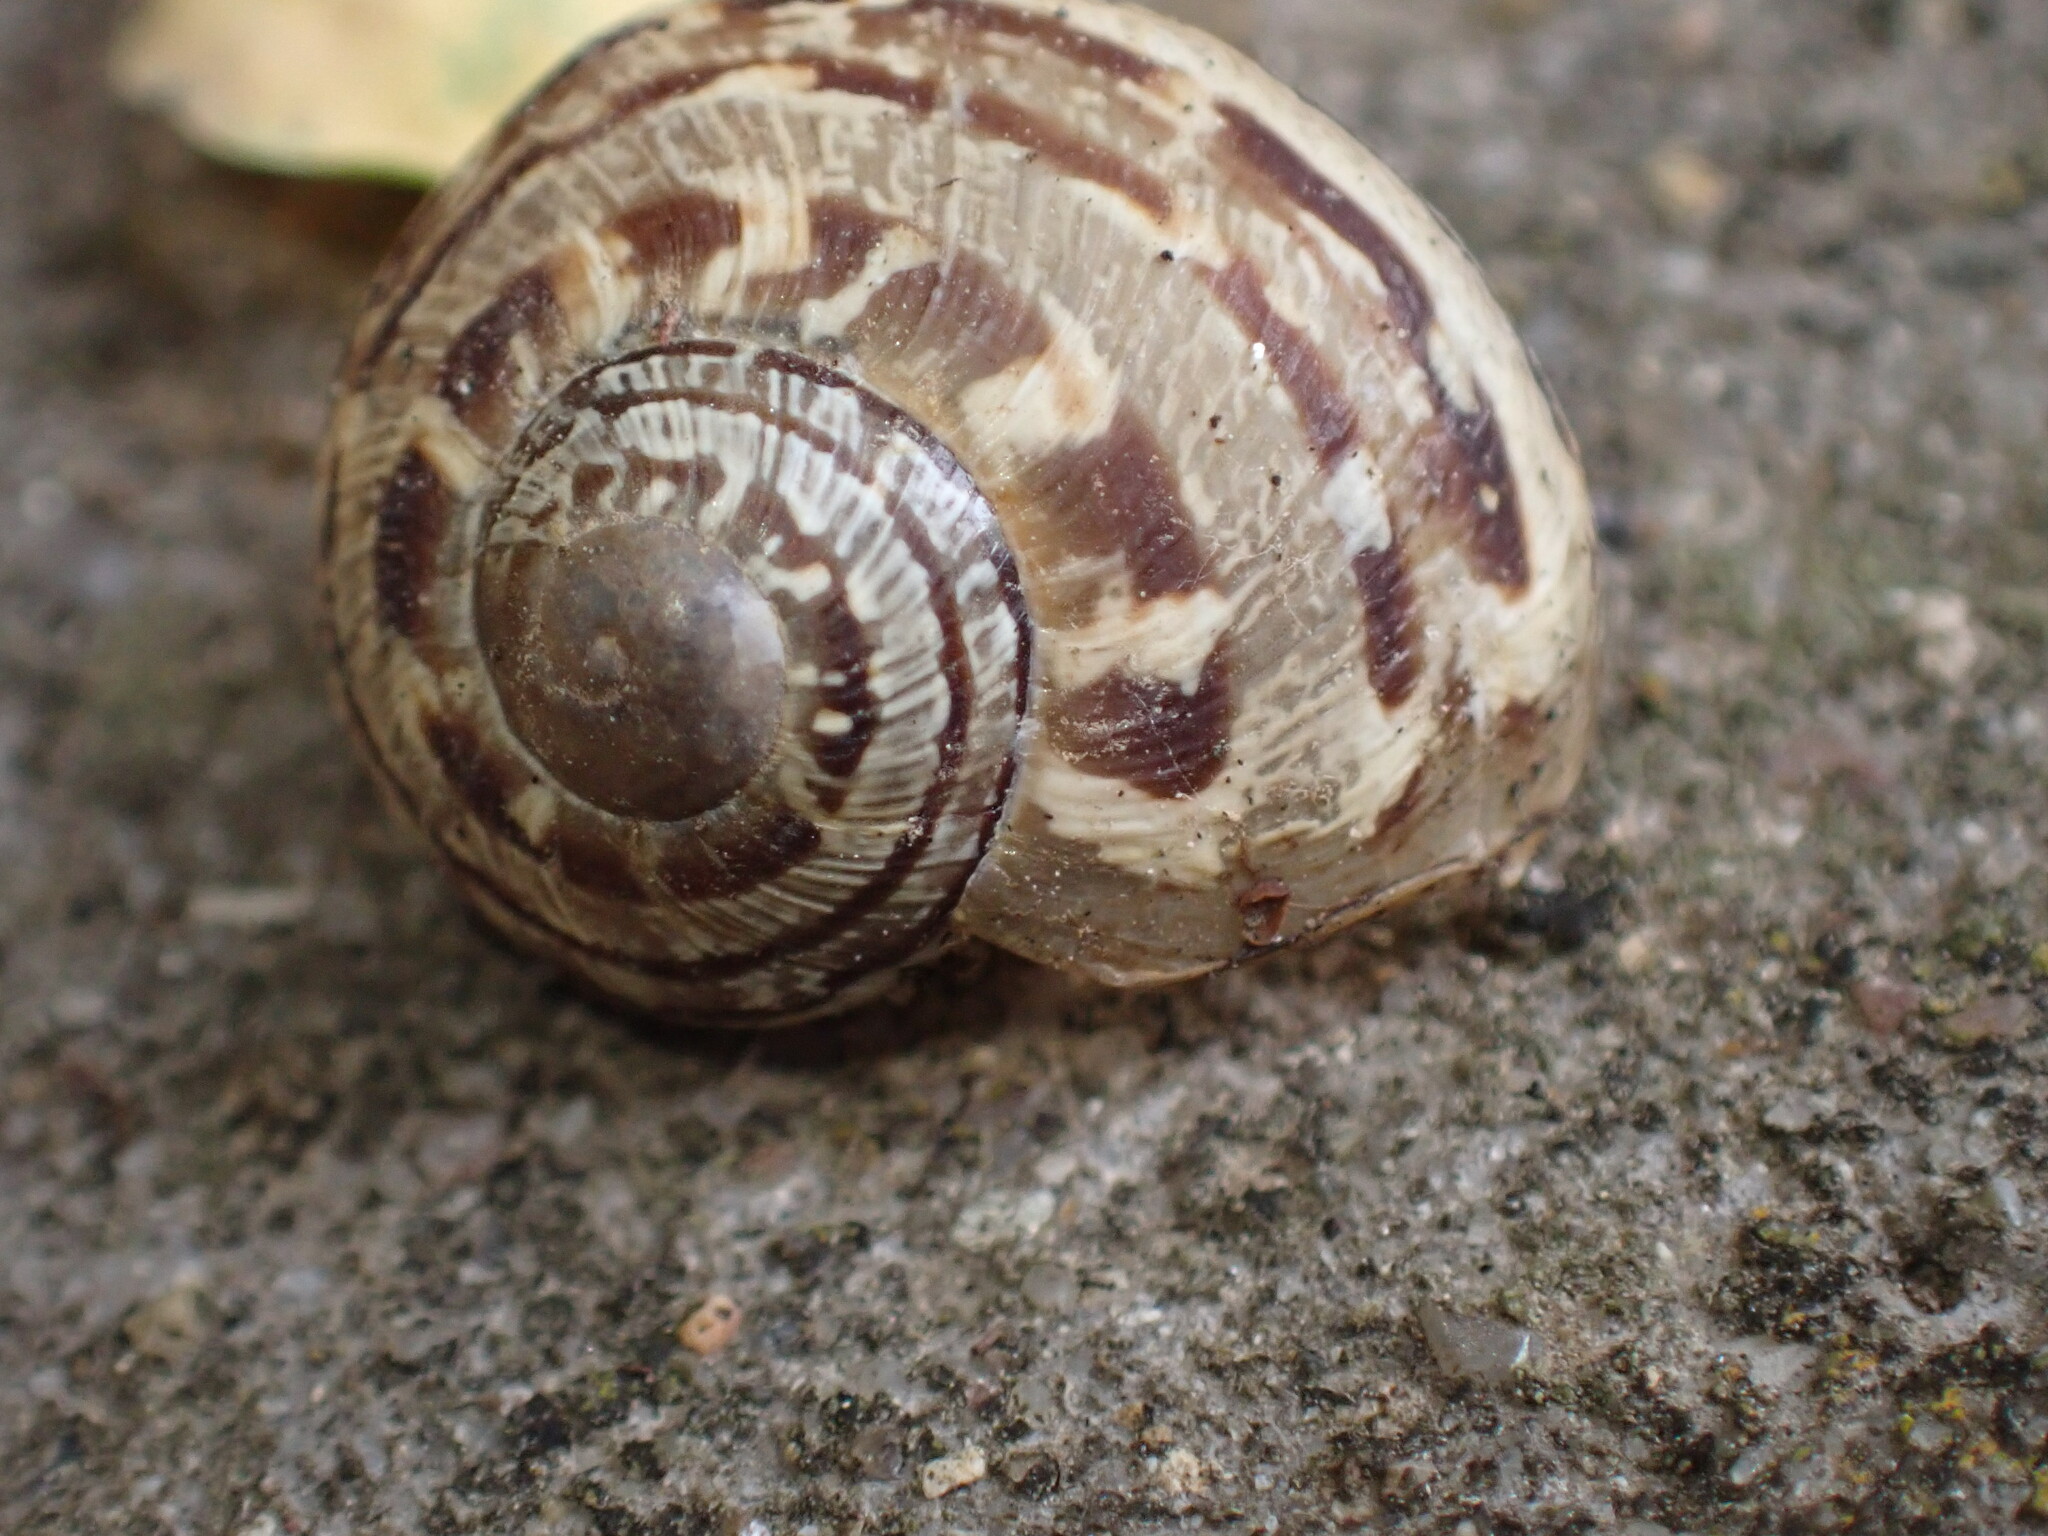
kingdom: Animalia
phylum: Mollusca
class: Gastropoda
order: Stylommatophora
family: Helicidae
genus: Cornu
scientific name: Cornu aspersum
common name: Brown garden snail
